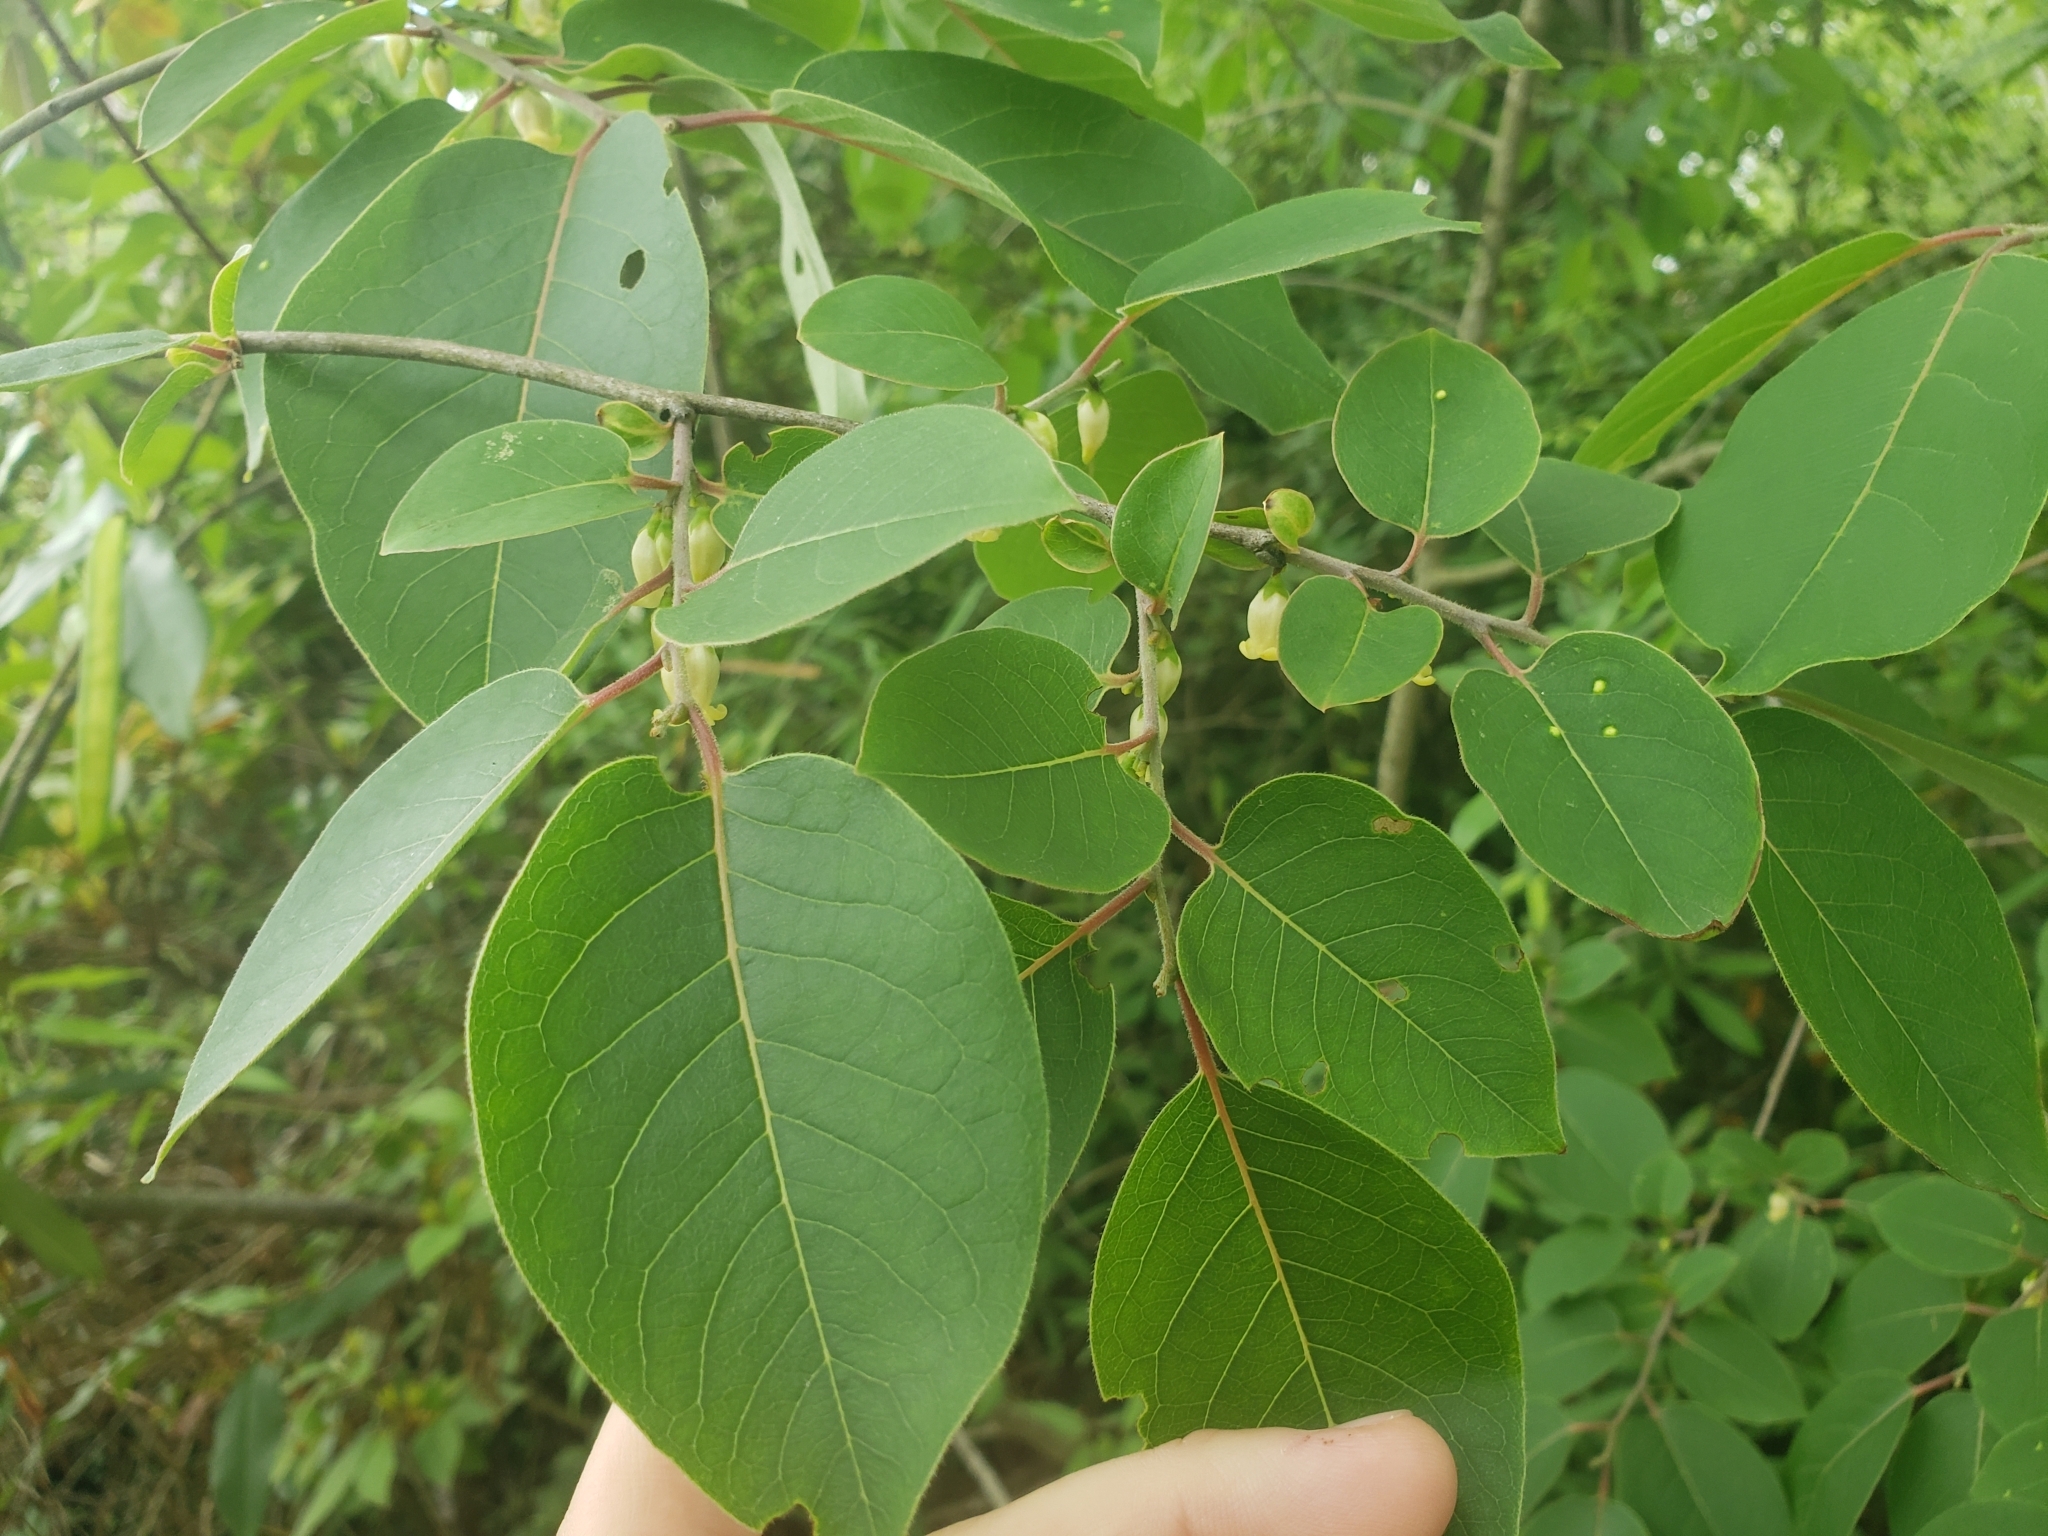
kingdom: Plantae
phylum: Tracheophyta
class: Magnoliopsida
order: Ericales
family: Ebenaceae
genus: Diospyros
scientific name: Diospyros virginiana
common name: Persimmon
